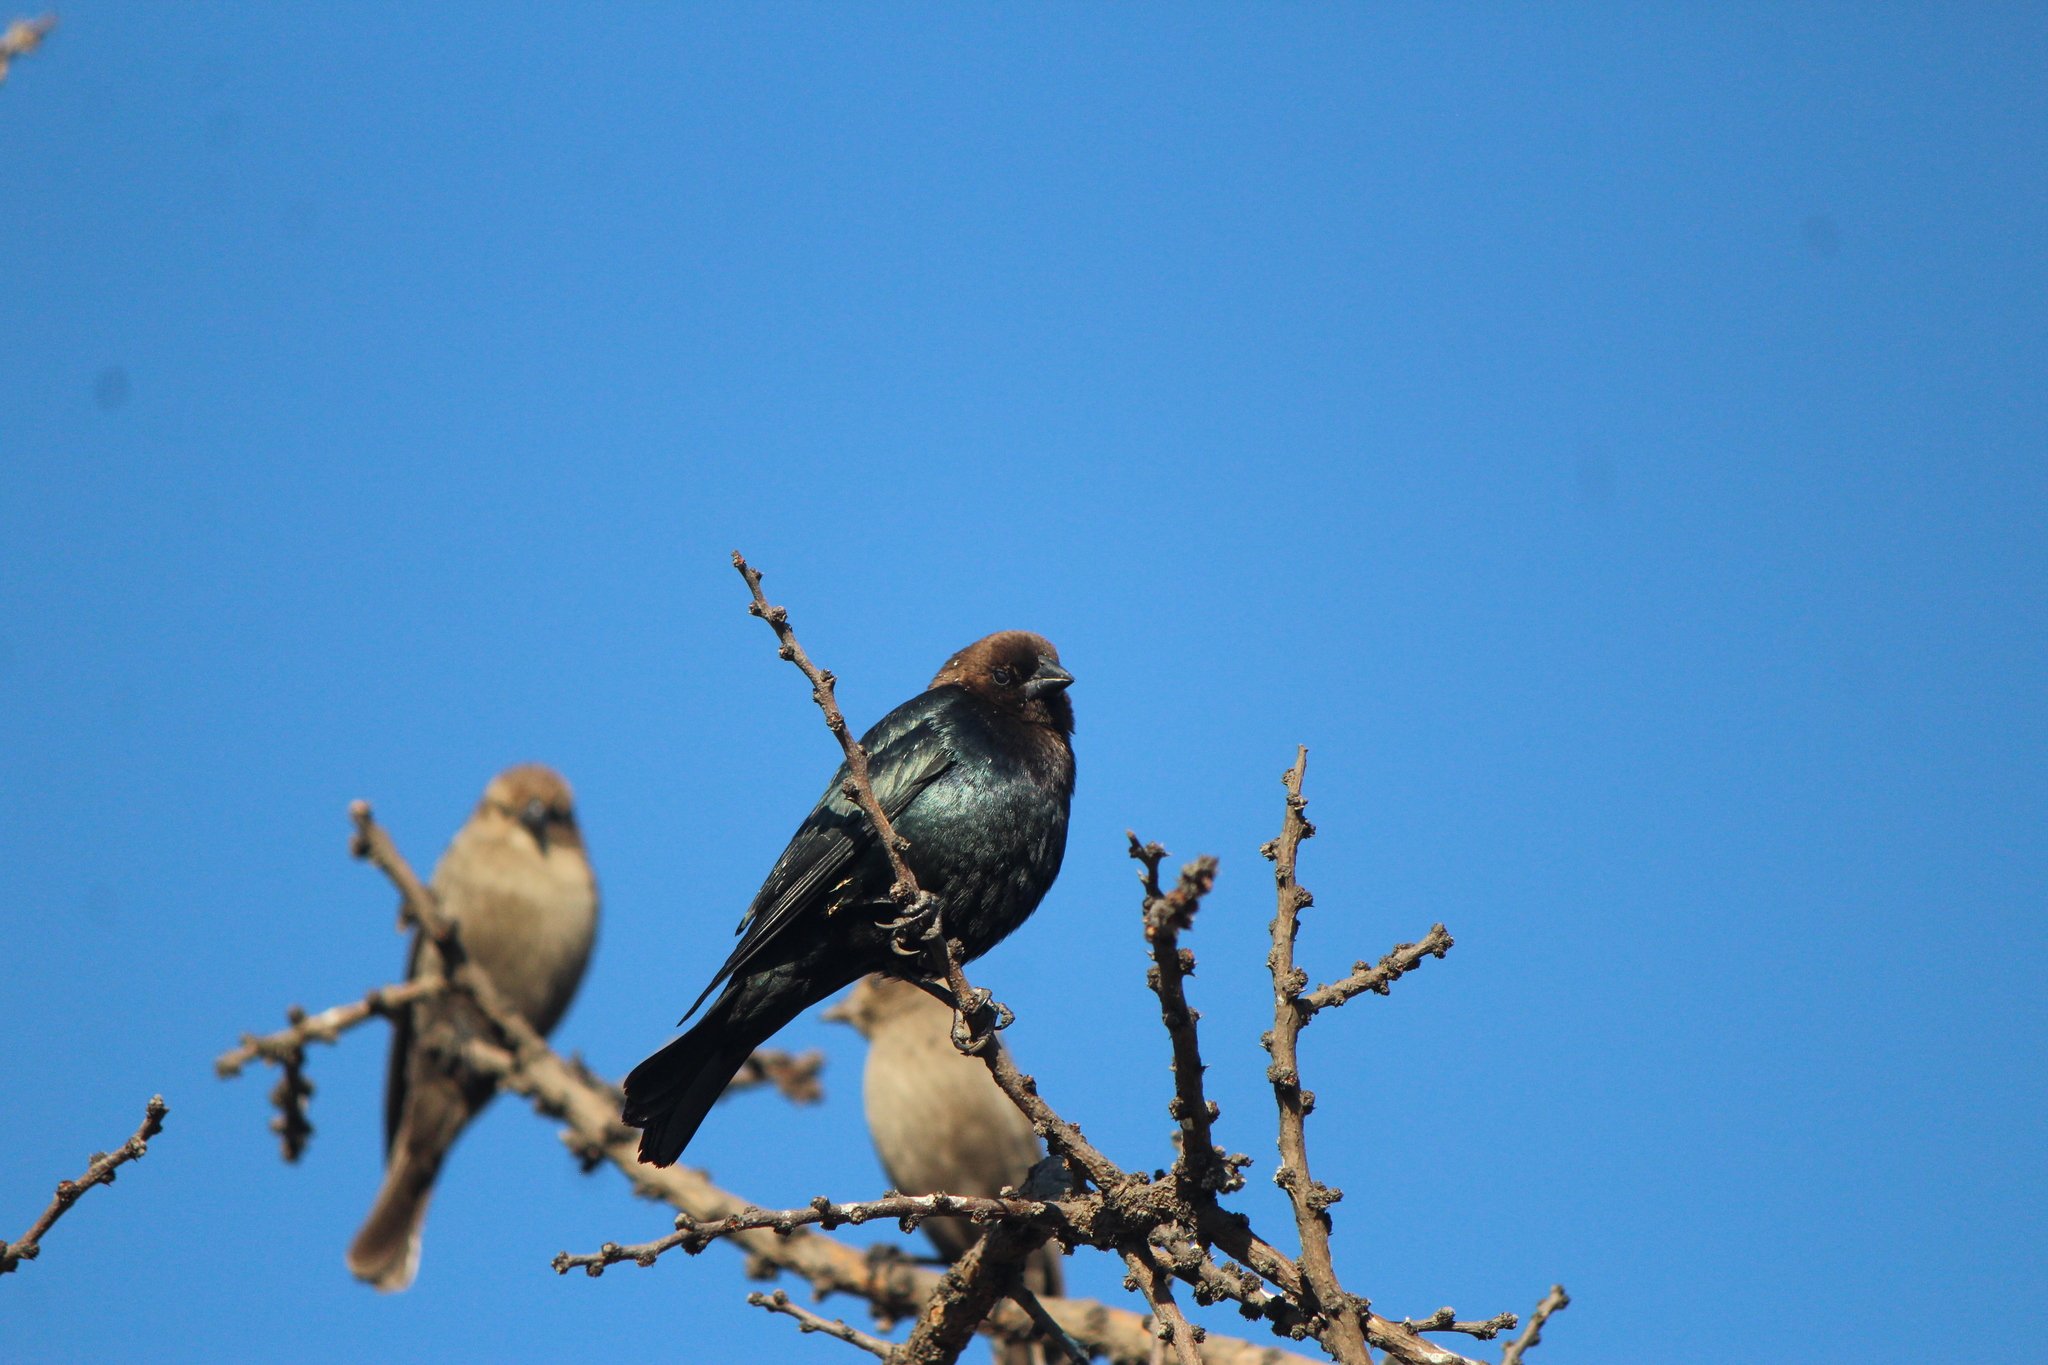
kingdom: Animalia
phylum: Chordata
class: Aves
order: Passeriformes
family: Icteridae
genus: Molothrus
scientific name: Molothrus ater
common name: Brown-headed cowbird
